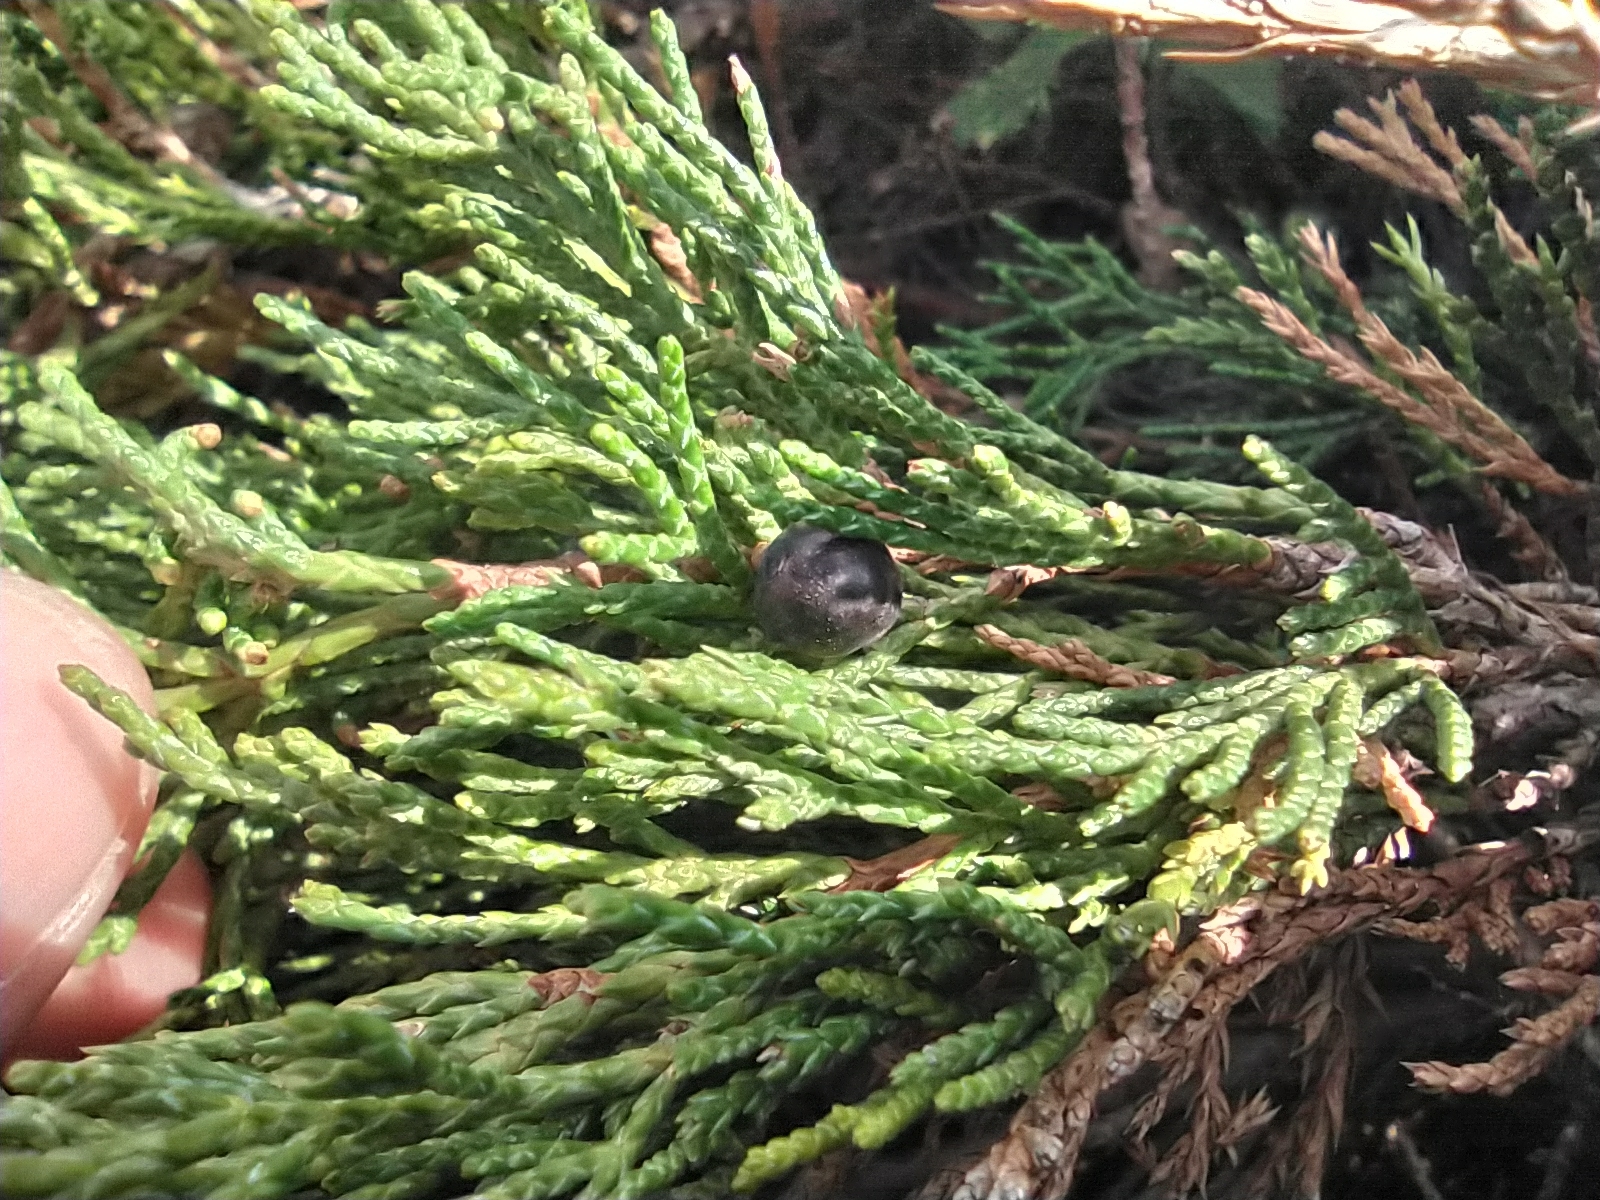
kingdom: Plantae
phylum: Tracheophyta
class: Pinopsida
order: Pinales
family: Cupressaceae
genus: Juniperus
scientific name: Juniperus sabina
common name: Savin
